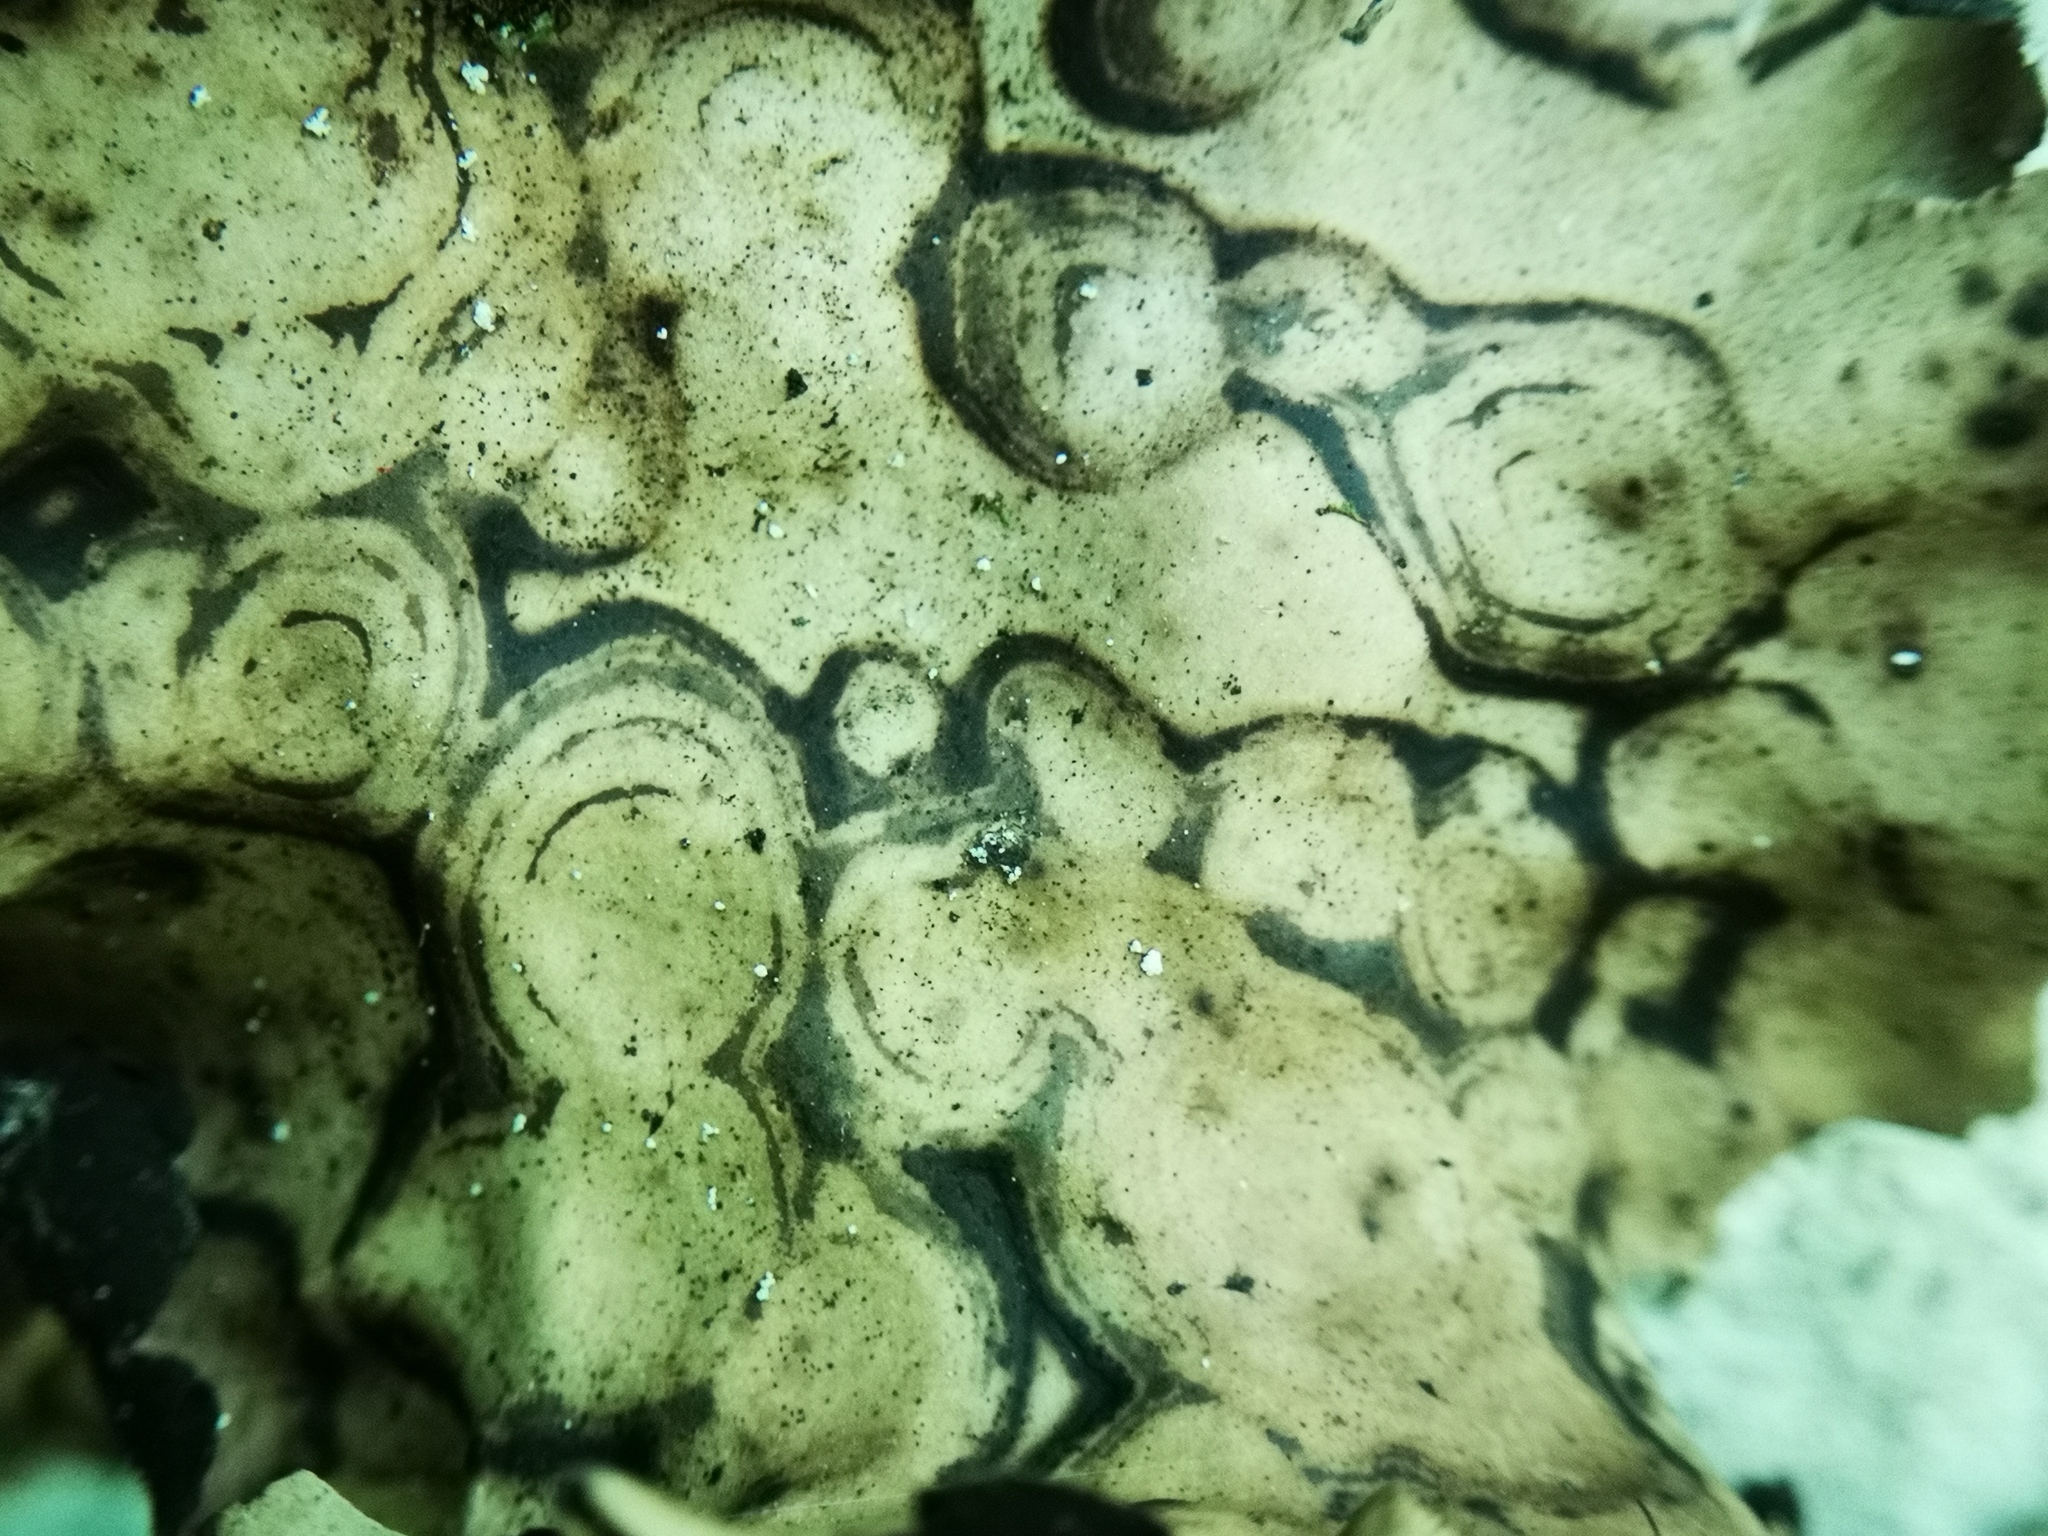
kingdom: Fungi
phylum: Ascomycota
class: Lecanoromycetes
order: Umbilicariales
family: Umbilicariaceae
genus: Umbilicaria
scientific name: Umbilicaria mammulata
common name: Smooth rock tripe
